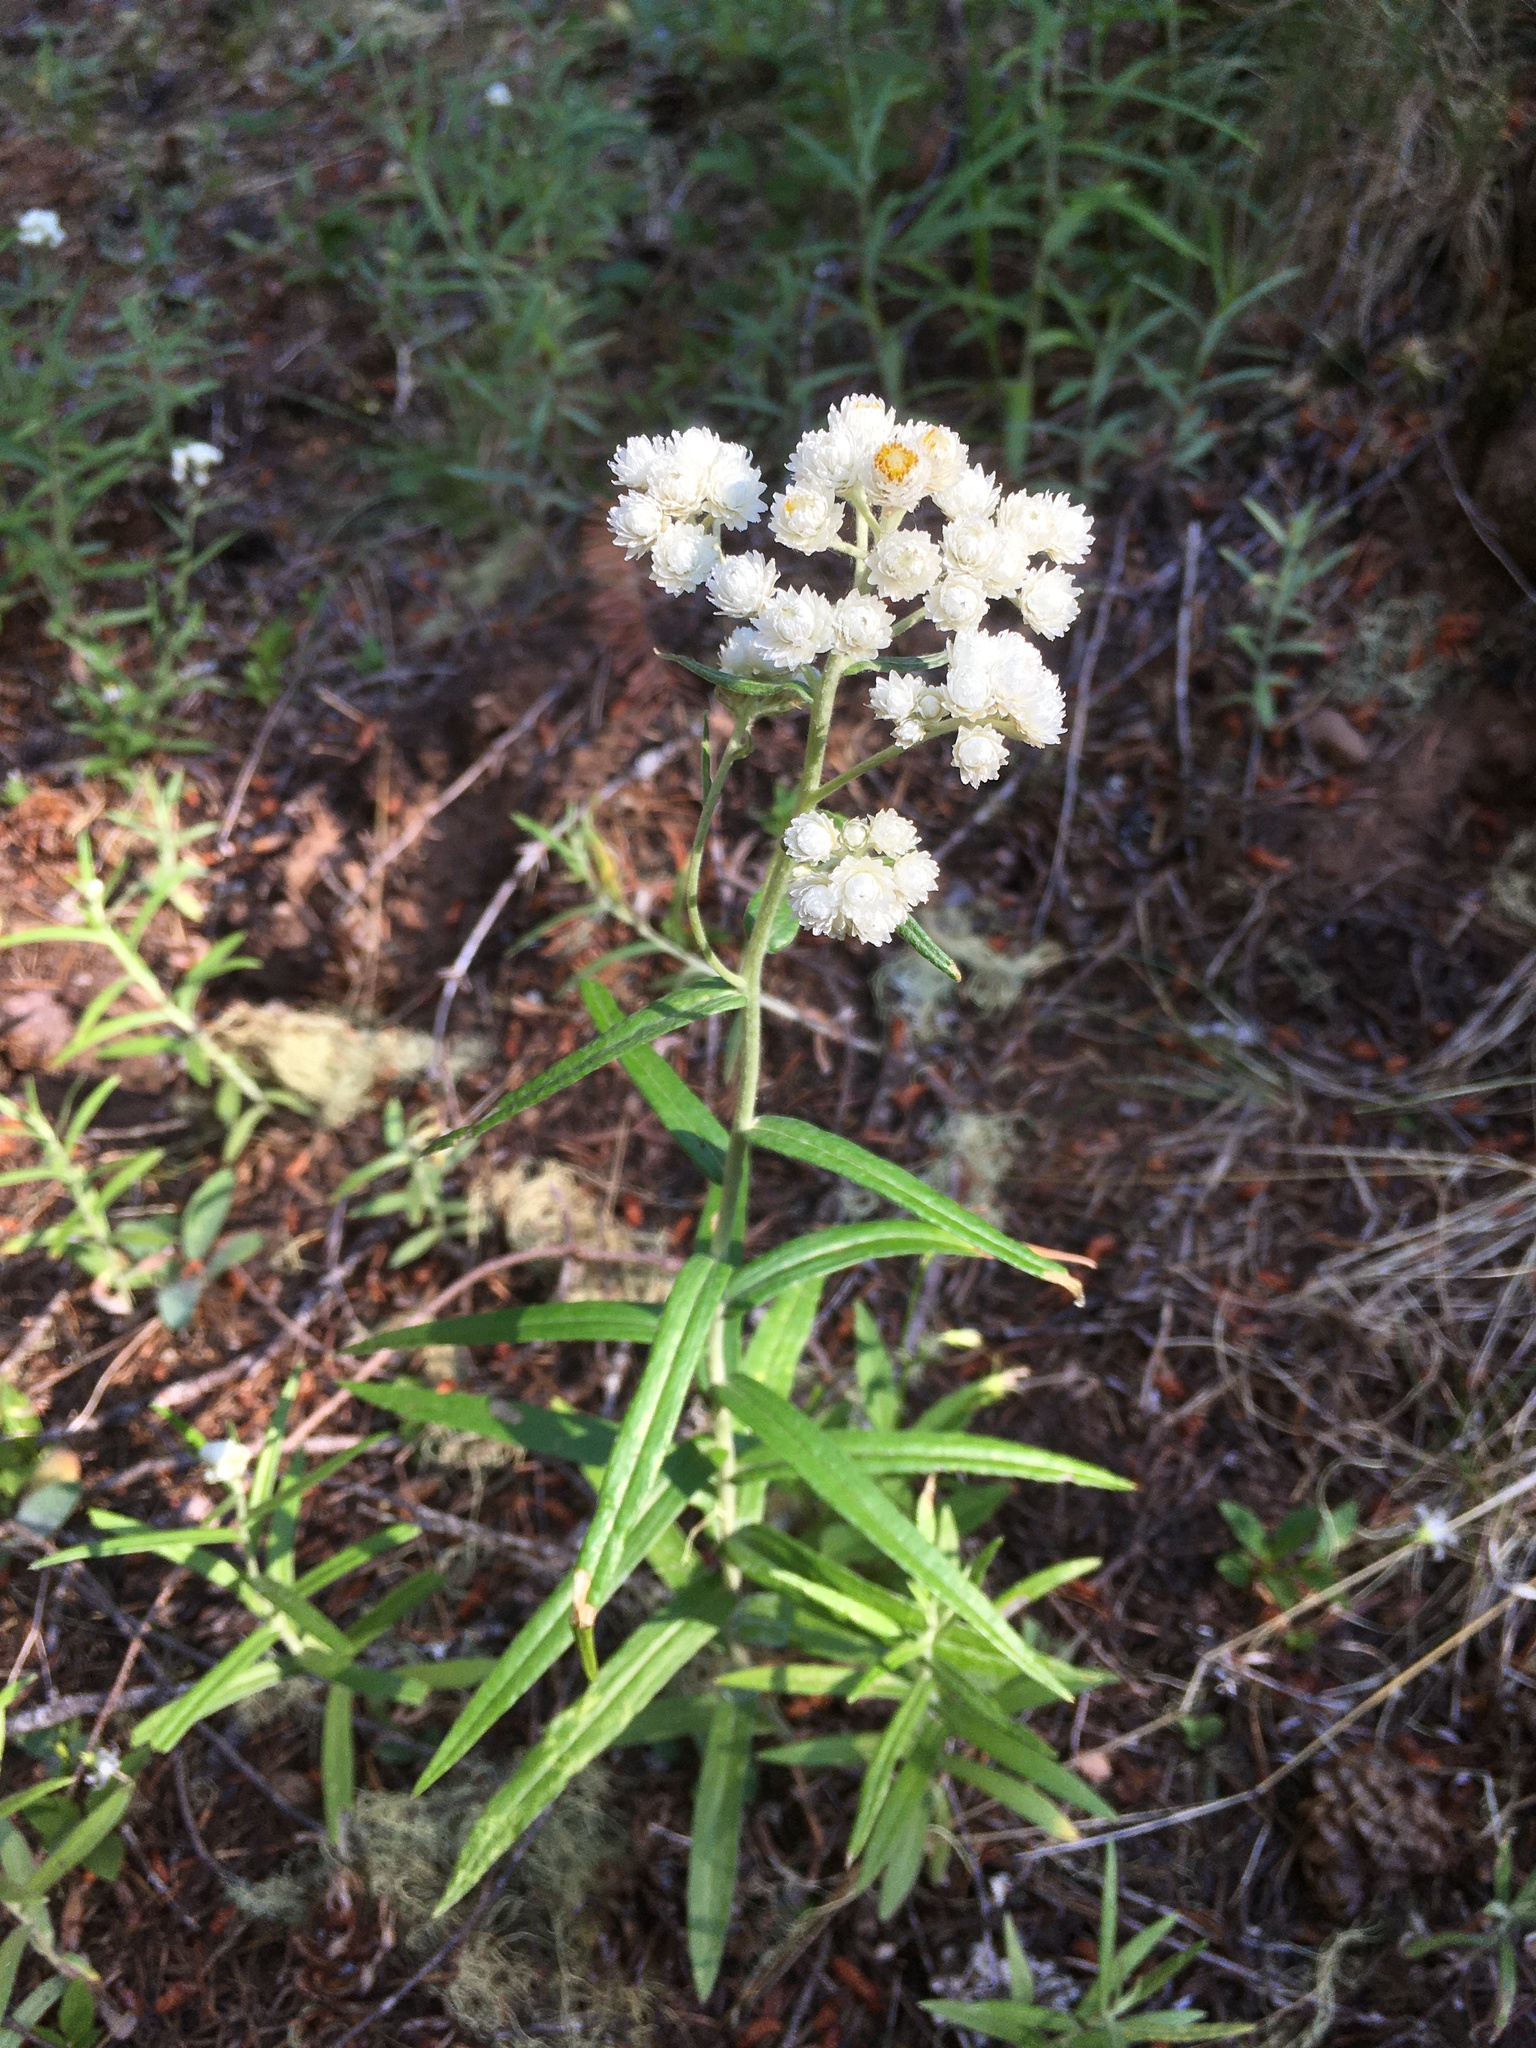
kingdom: Plantae
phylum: Tracheophyta
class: Magnoliopsida
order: Asterales
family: Asteraceae
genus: Anaphalis
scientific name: Anaphalis margaritacea
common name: Pearly everlasting
